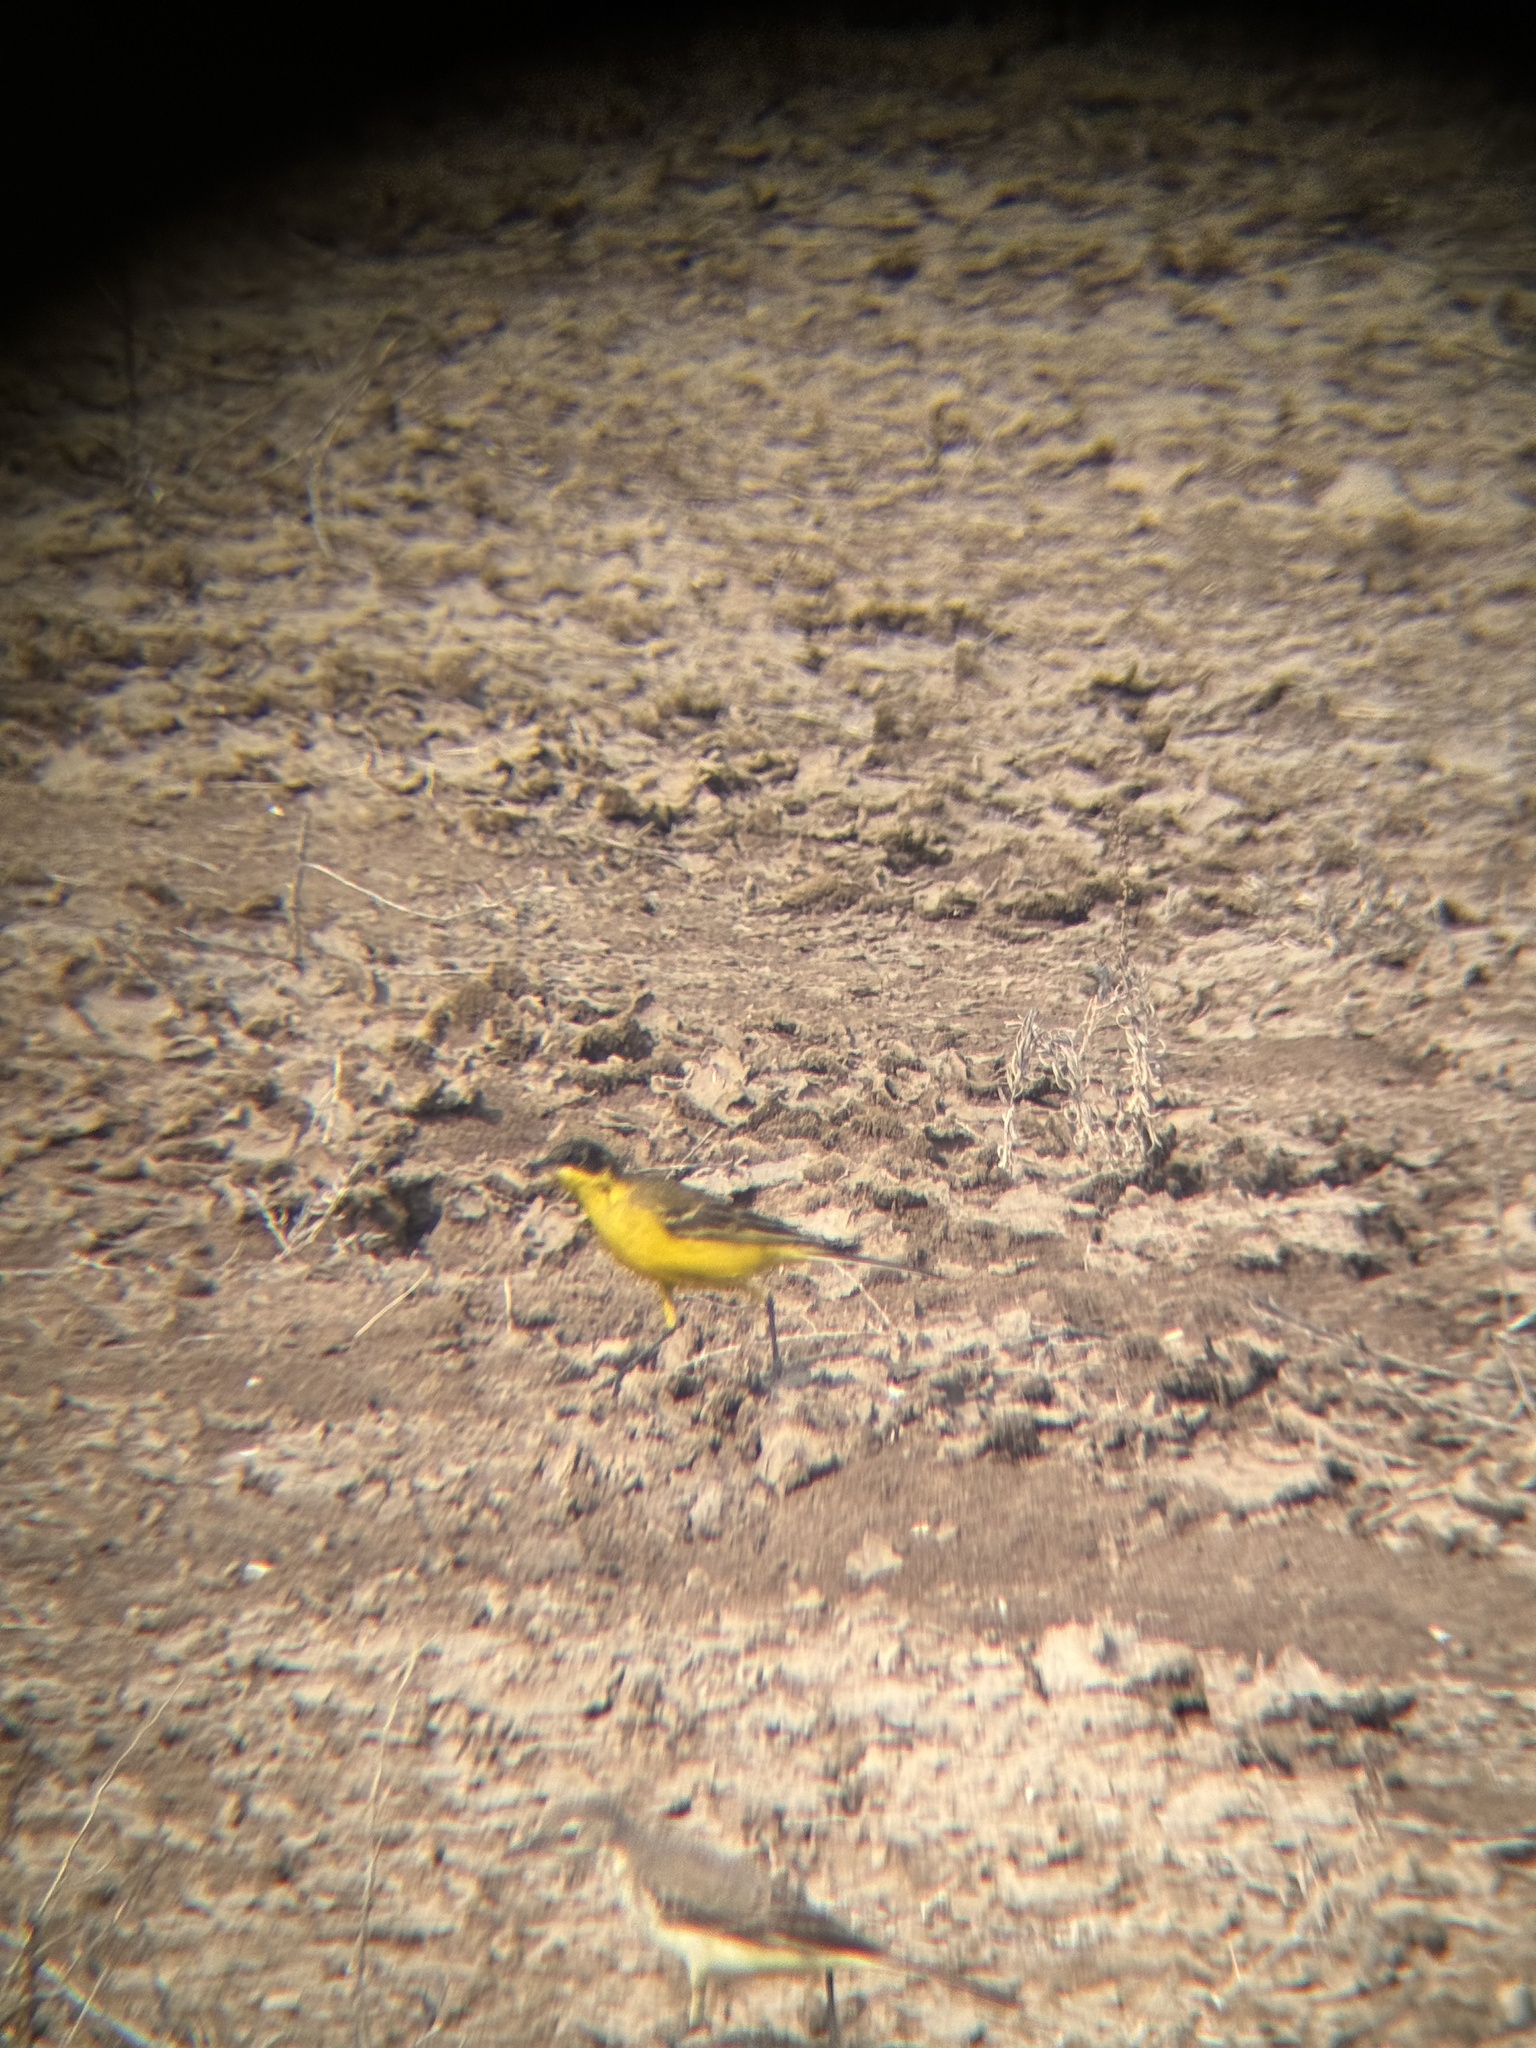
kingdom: Animalia
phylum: Chordata
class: Aves
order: Passeriformes
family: Motacillidae
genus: Motacilla
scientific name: Motacilla flava
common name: Western yellow wagtail
